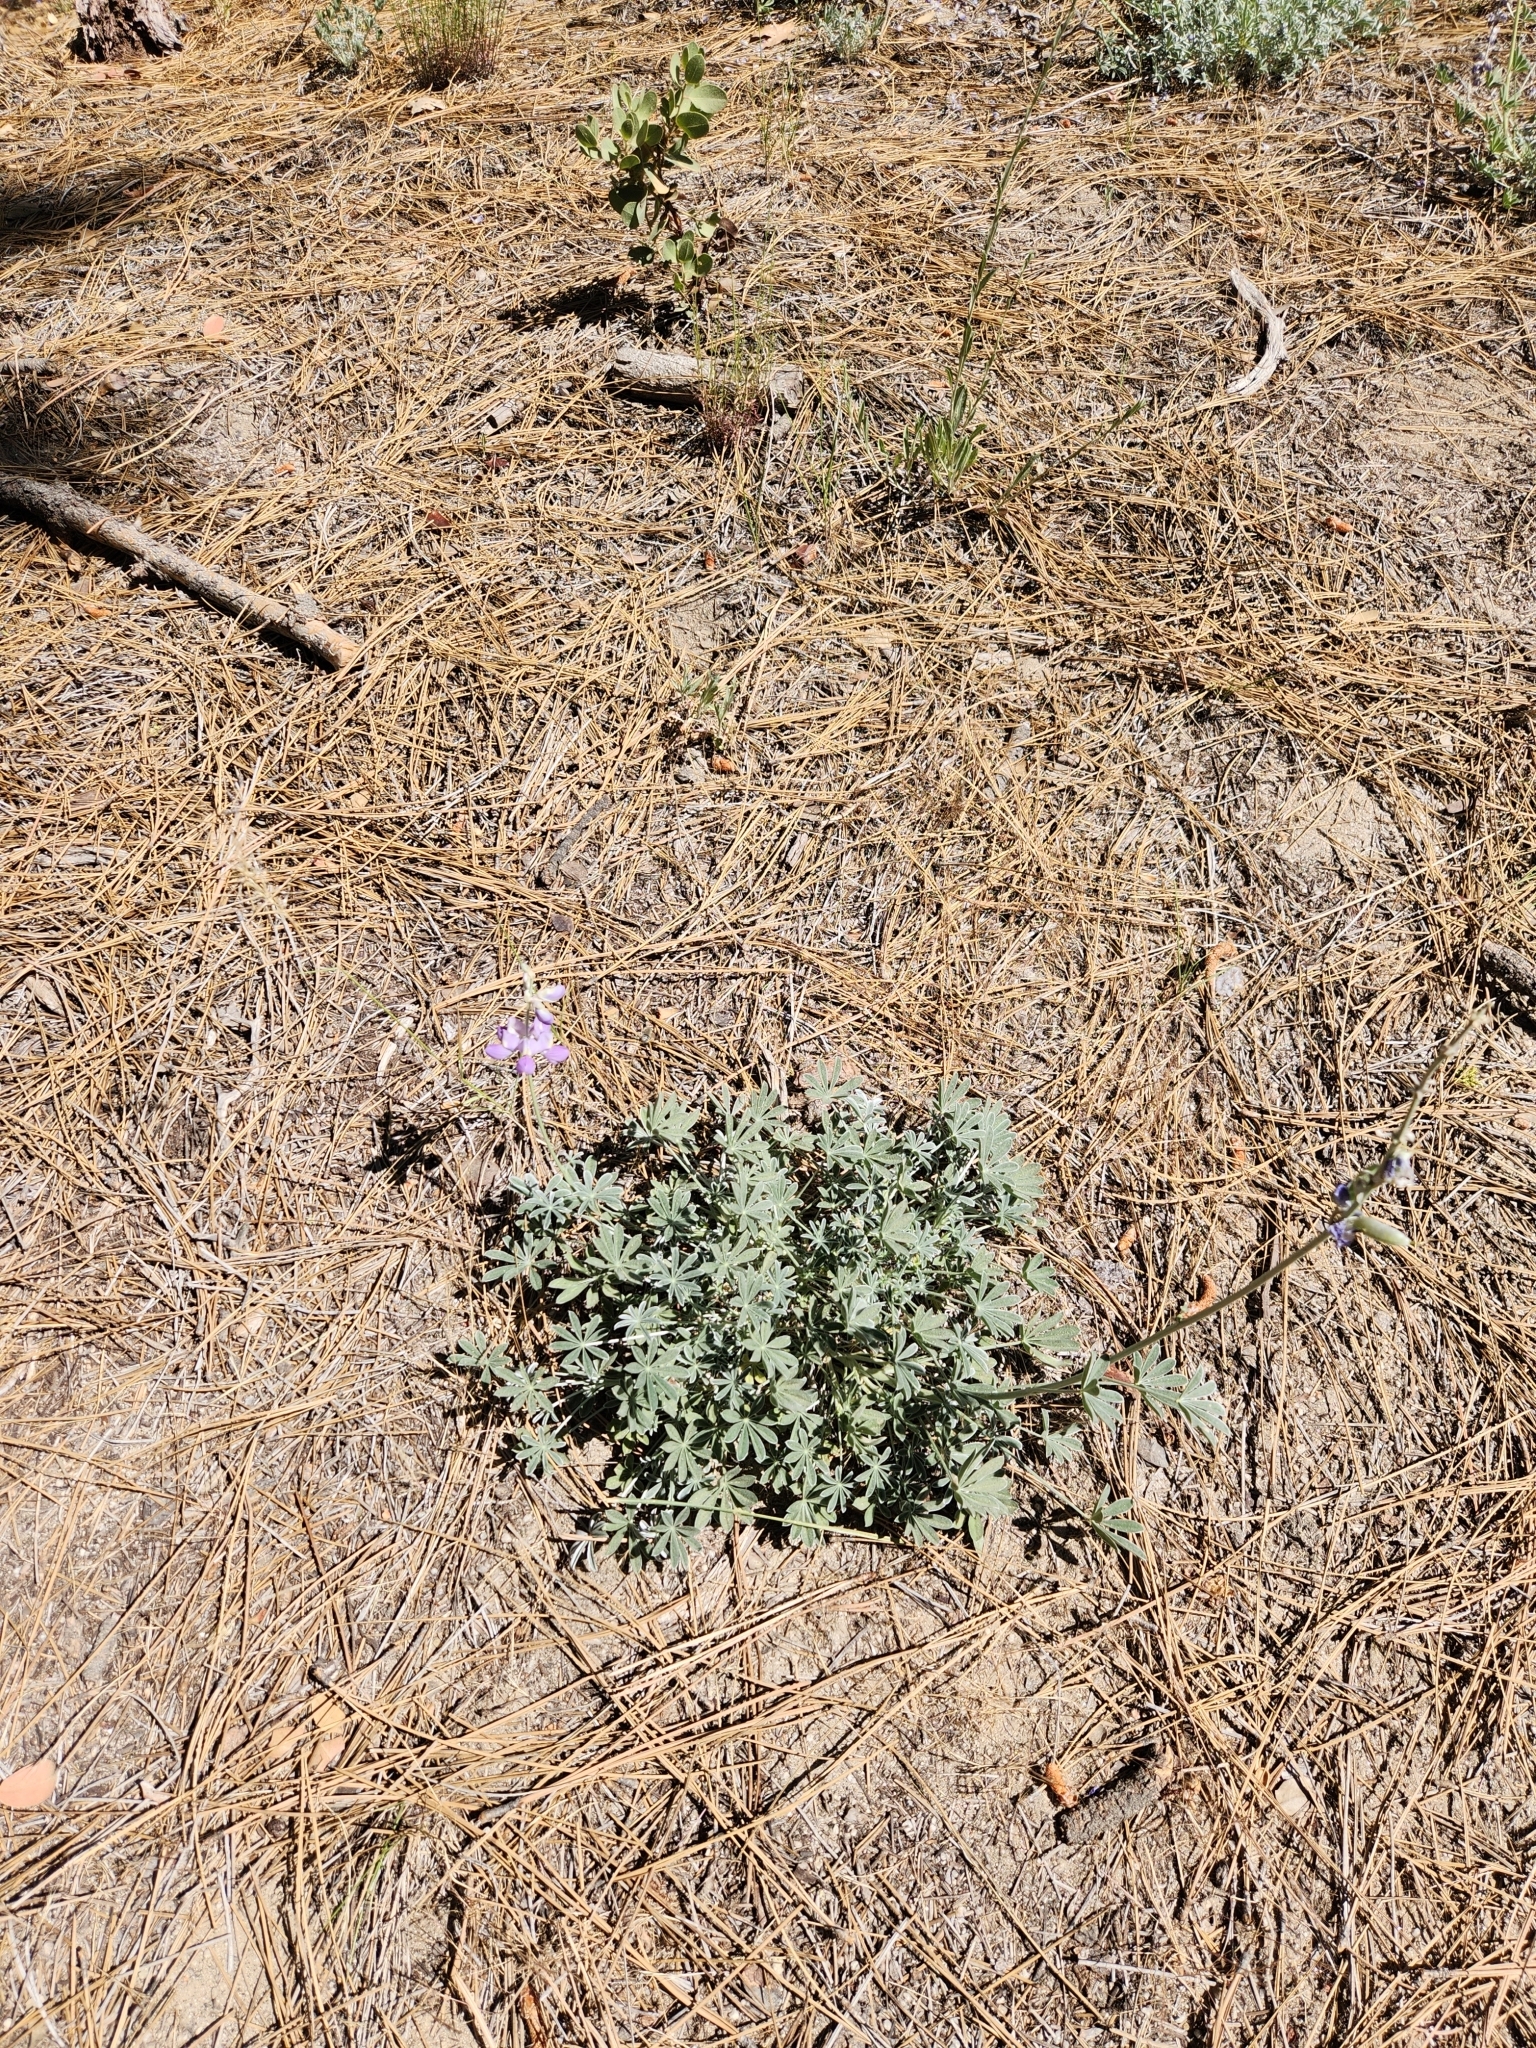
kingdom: Plantae
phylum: Tracheophyta
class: Magnoliopsida
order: Fabales
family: Fabaceae
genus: Lupinus
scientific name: Lupinus excubitus
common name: Grape soda lupine
